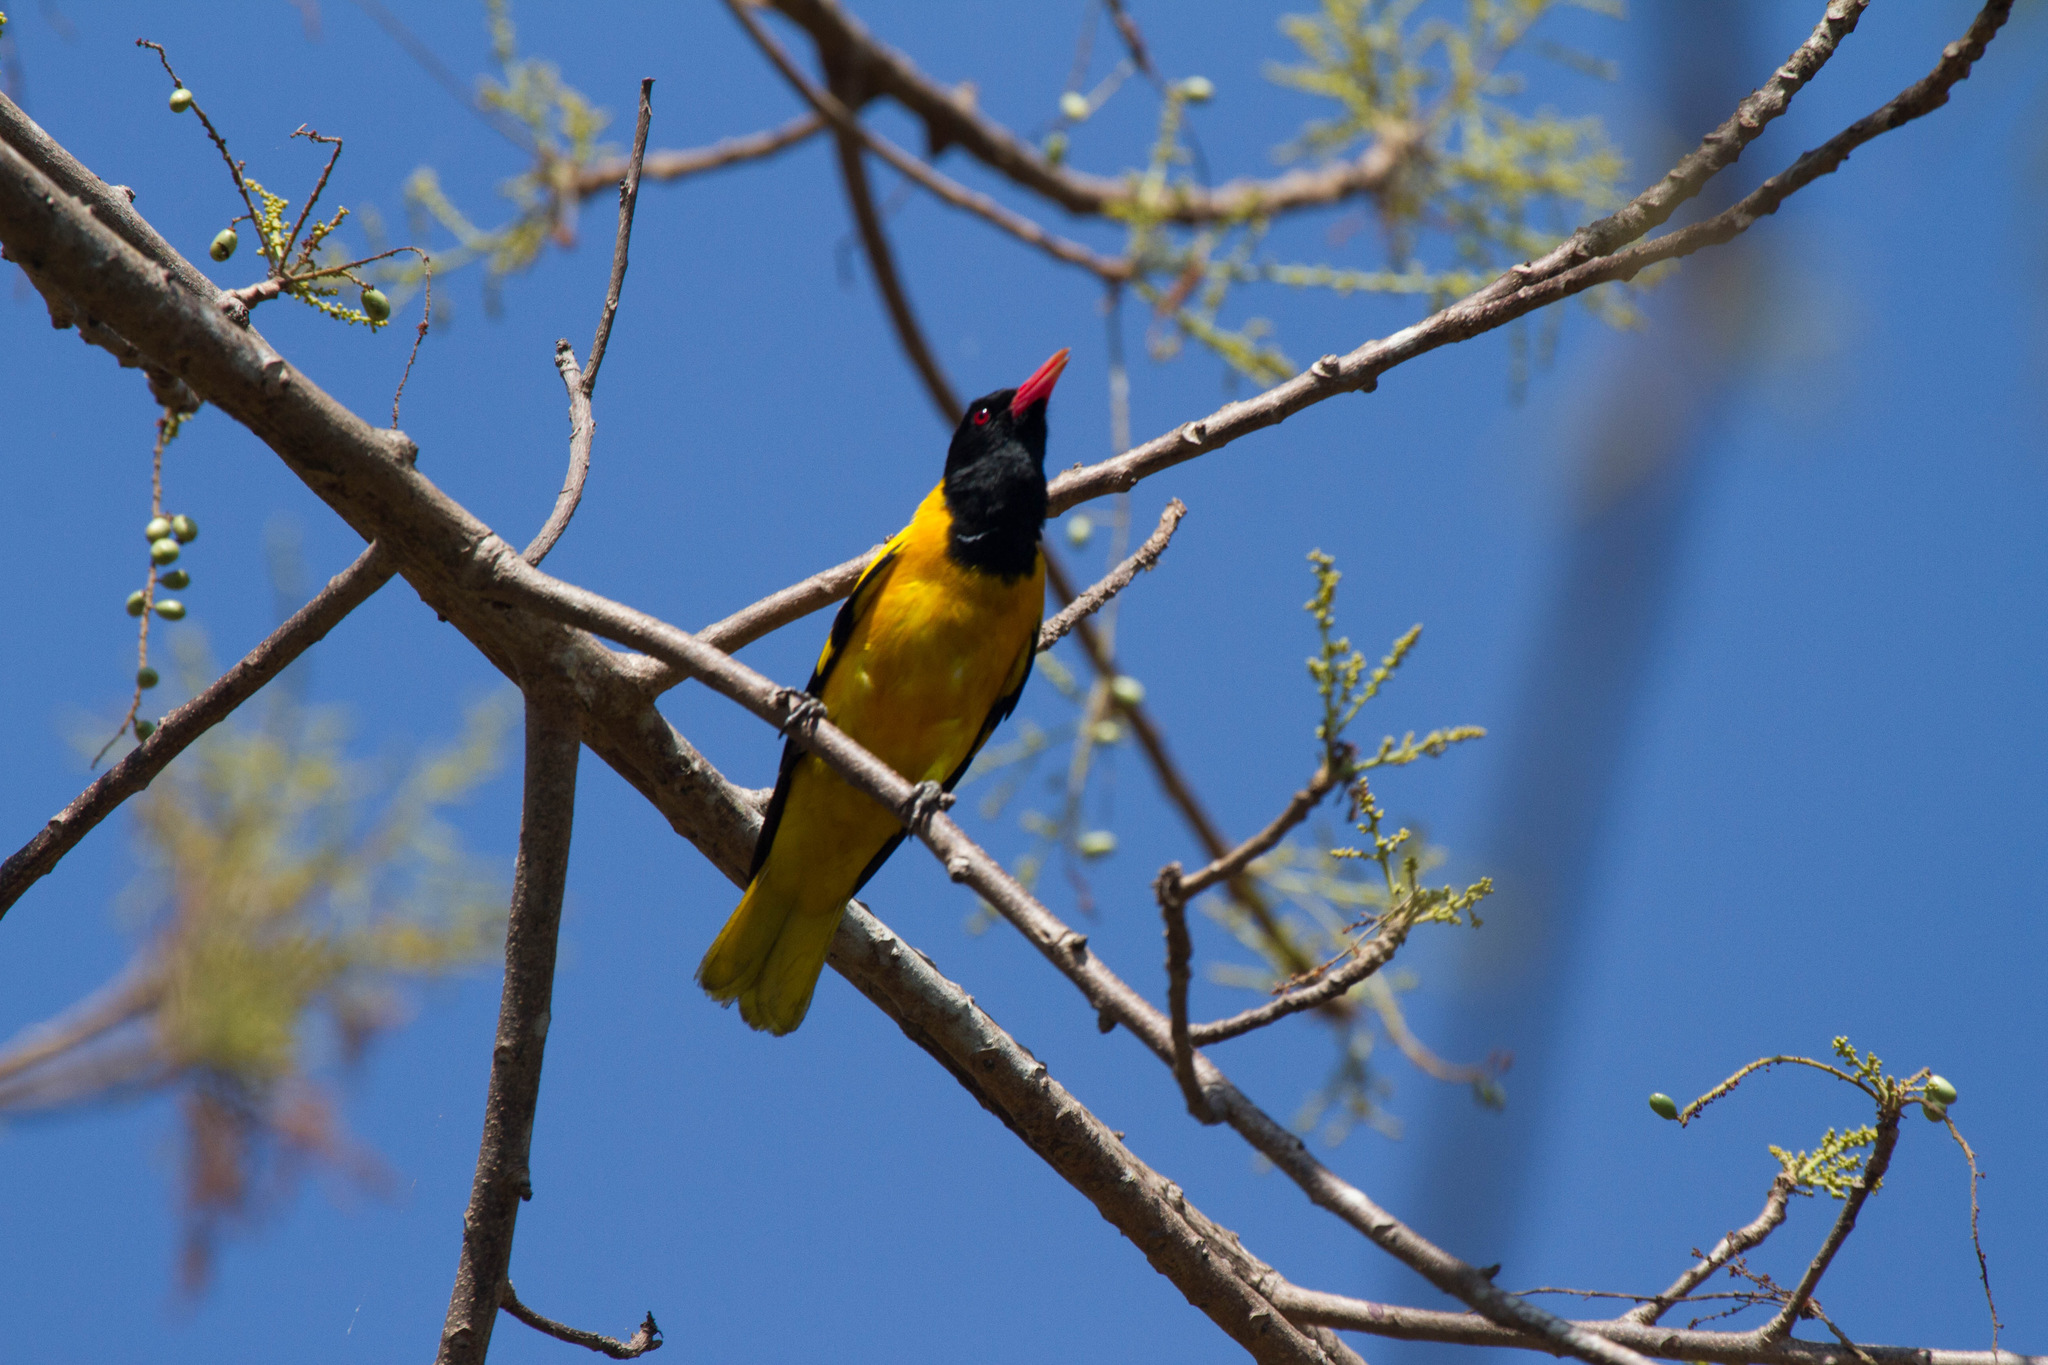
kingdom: Animalia
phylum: Chordata
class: Aves
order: Passeriformes
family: Oriolidae
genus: Oriolus
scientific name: Oriolus xanthornus
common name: Black-hooded oriole
